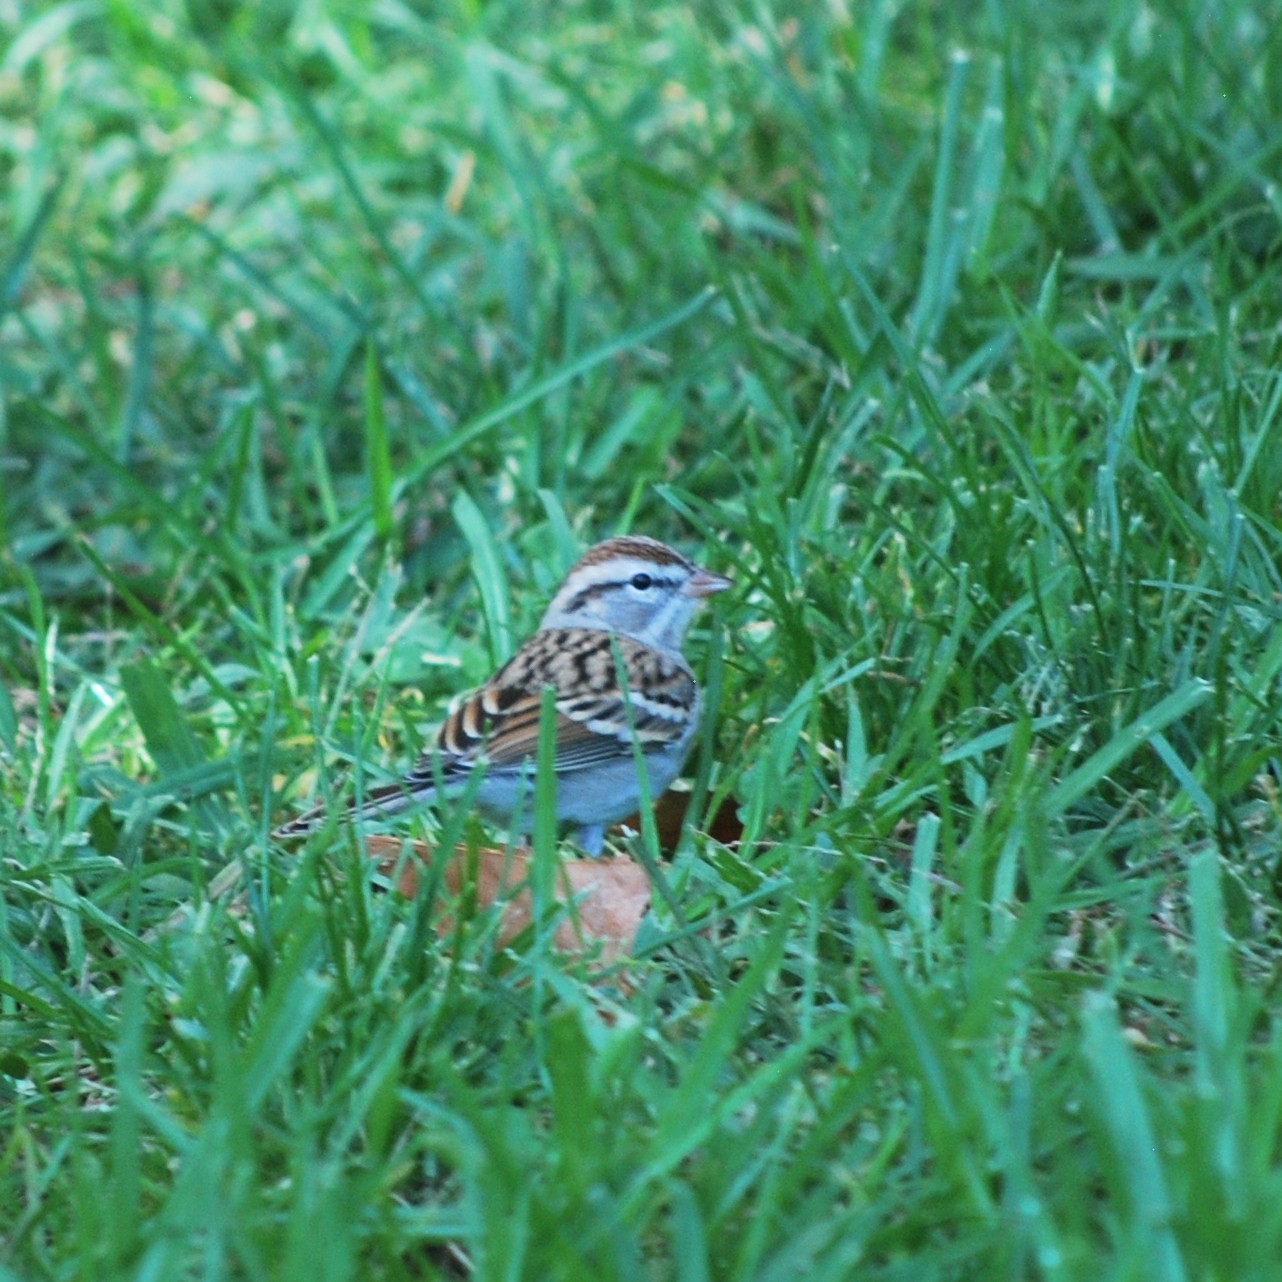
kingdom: Animalia
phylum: Chordata
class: Aves
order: Passeriformes
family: Passerellidae
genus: Spizella
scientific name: Spizella passerina
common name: Chipping sparrow
